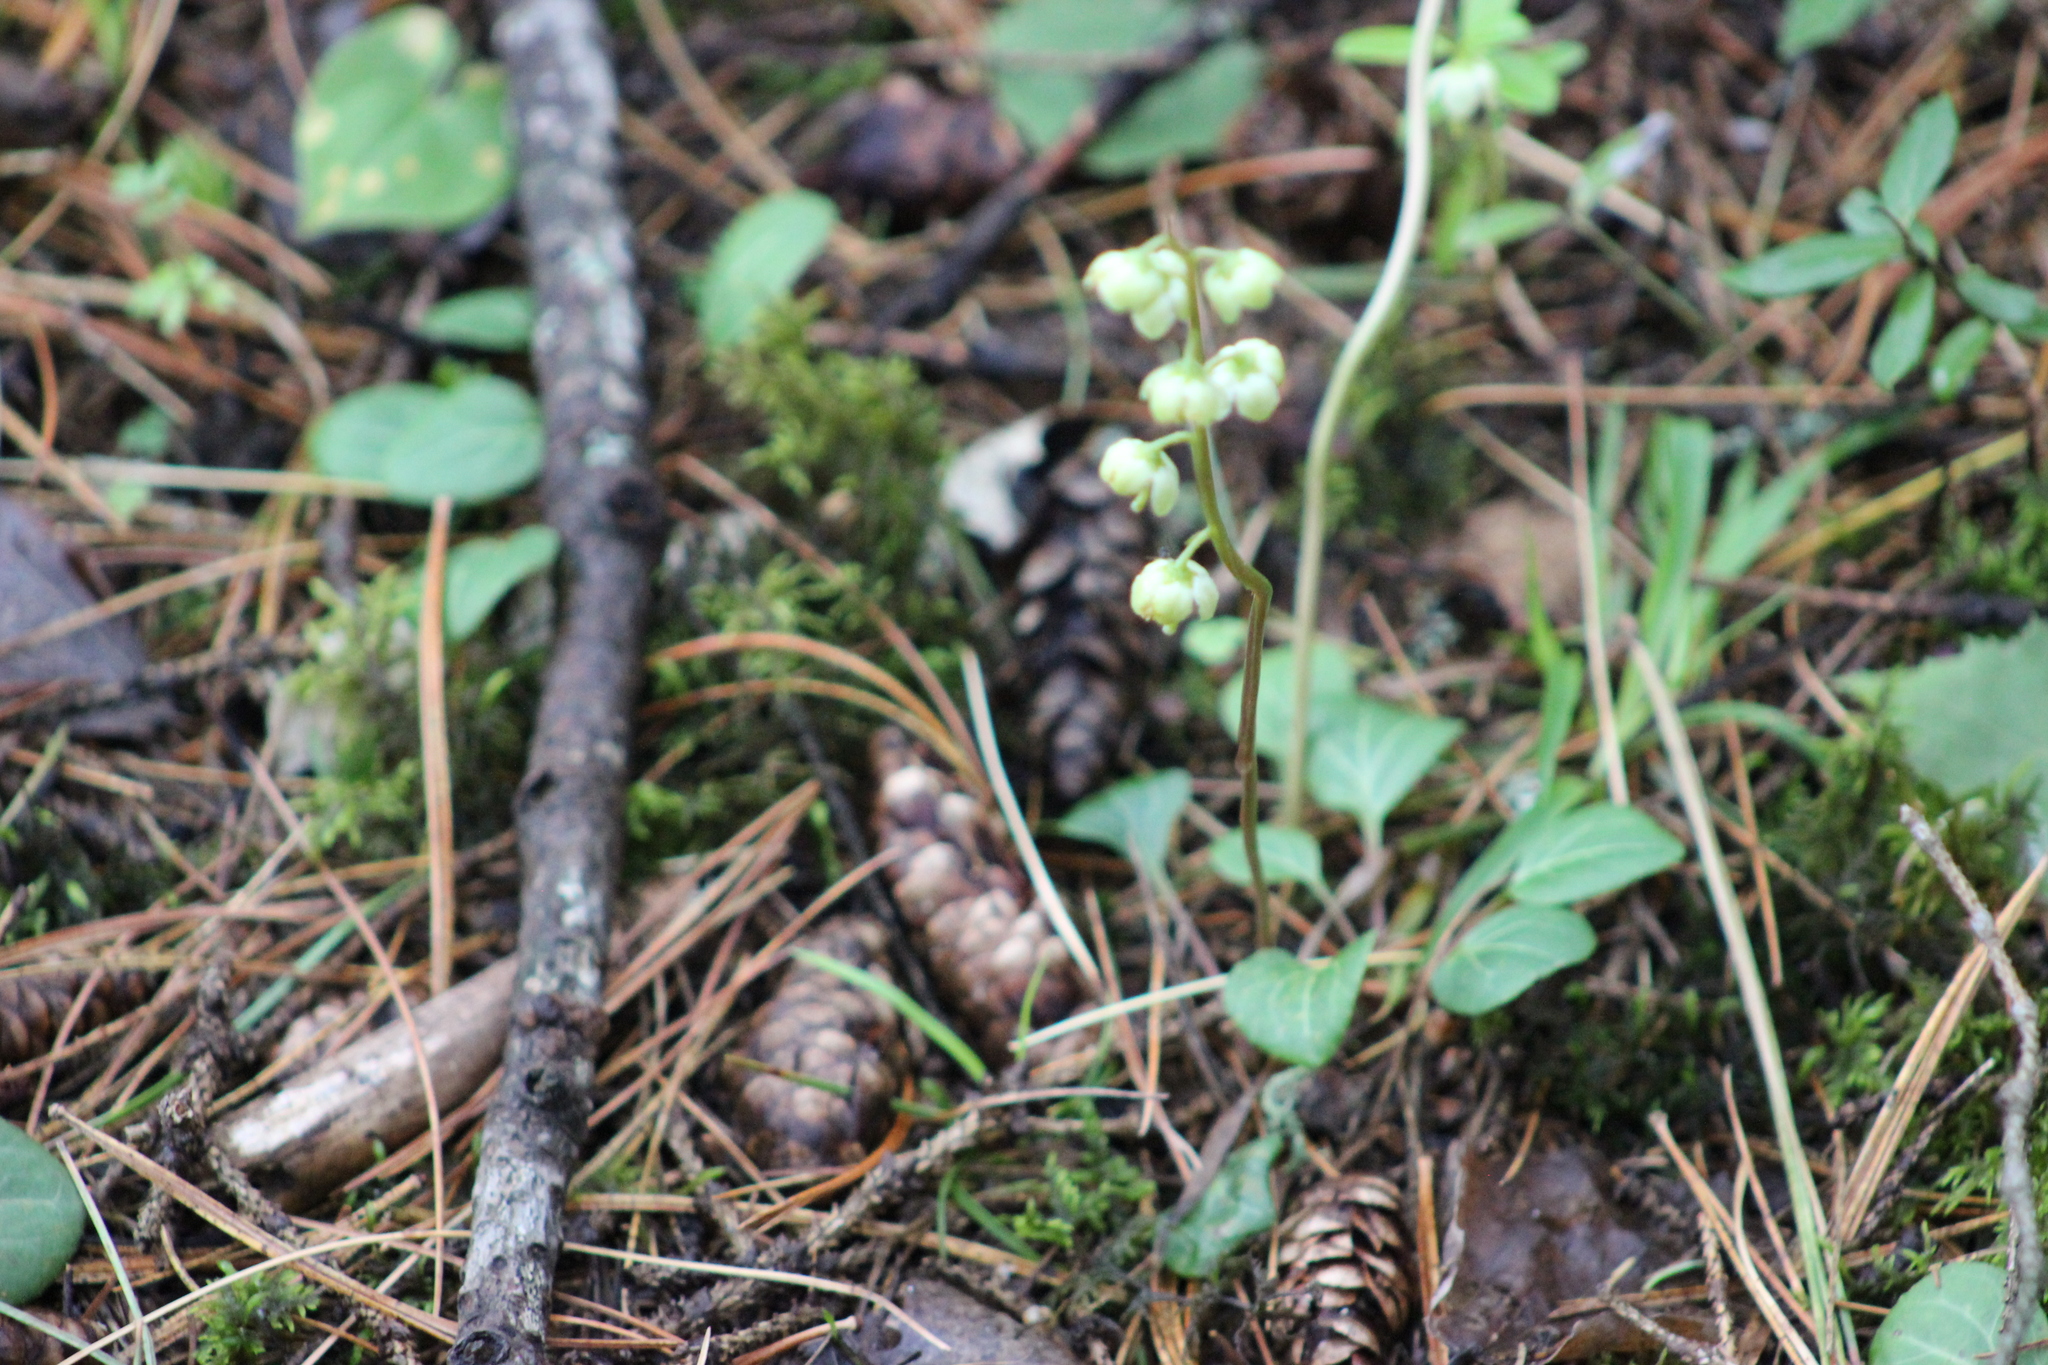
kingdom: Plantae
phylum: Tracheophyta
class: Magnoliopsida
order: Ericales
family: Ericaceae
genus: Pyrola
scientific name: Pyrola chlorantha
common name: Green wintergreen
